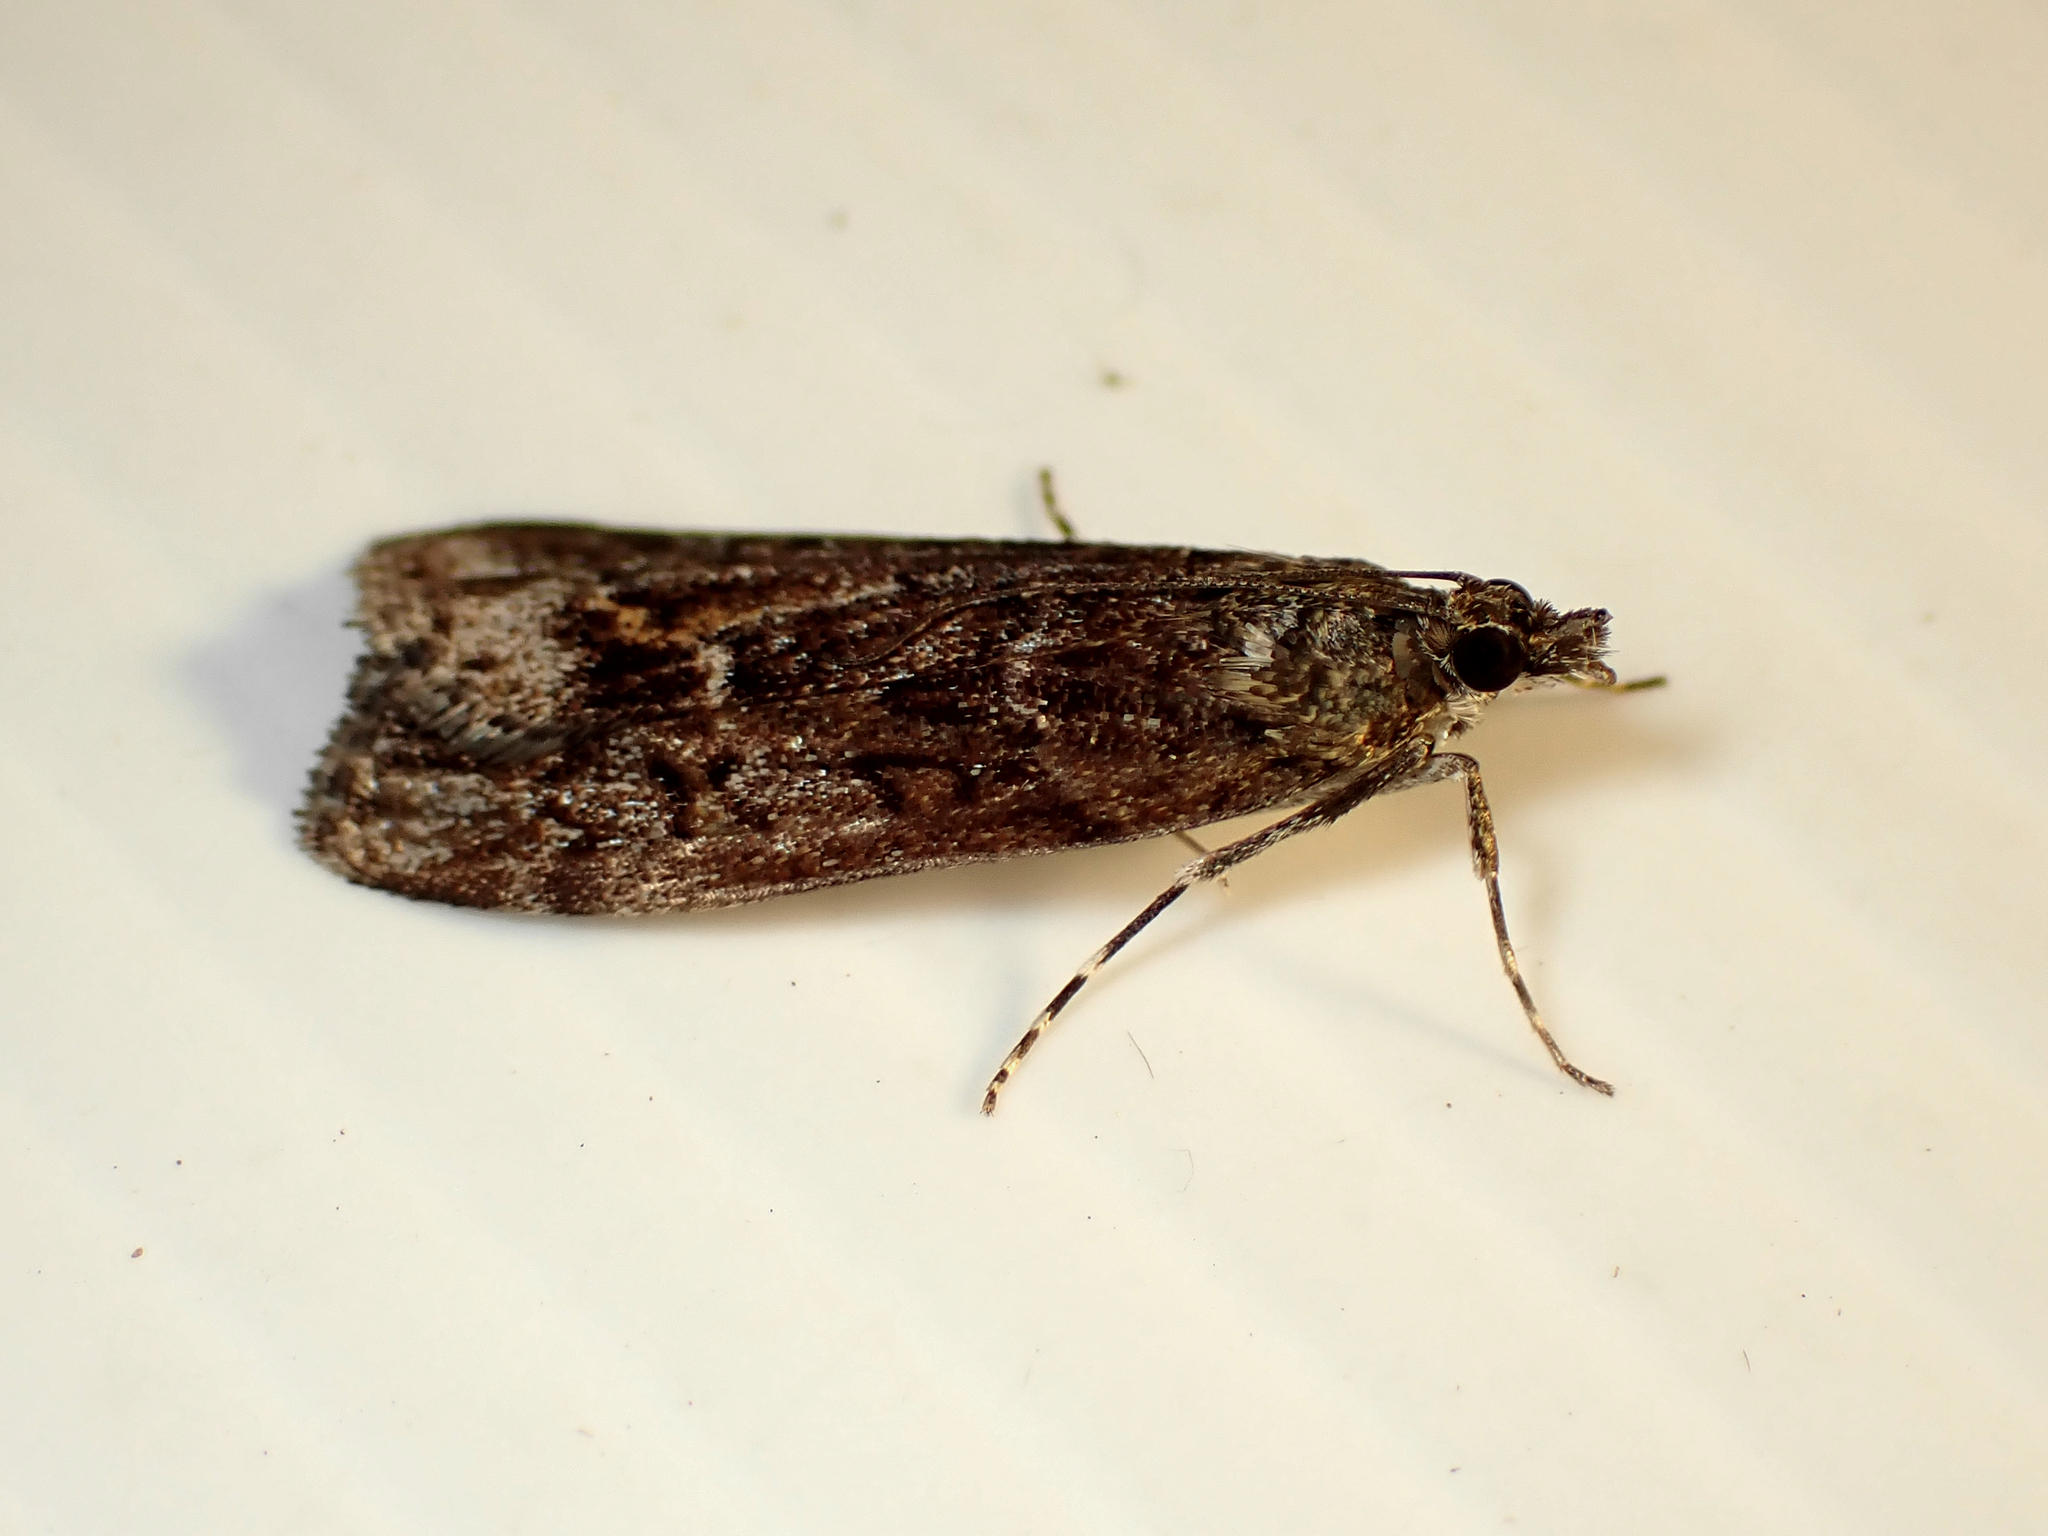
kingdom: Animalia
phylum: Arthropoda
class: Insecta
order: Lepidoptera
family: Crambidae
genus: Eudonia
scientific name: Eudonia submarginalis
